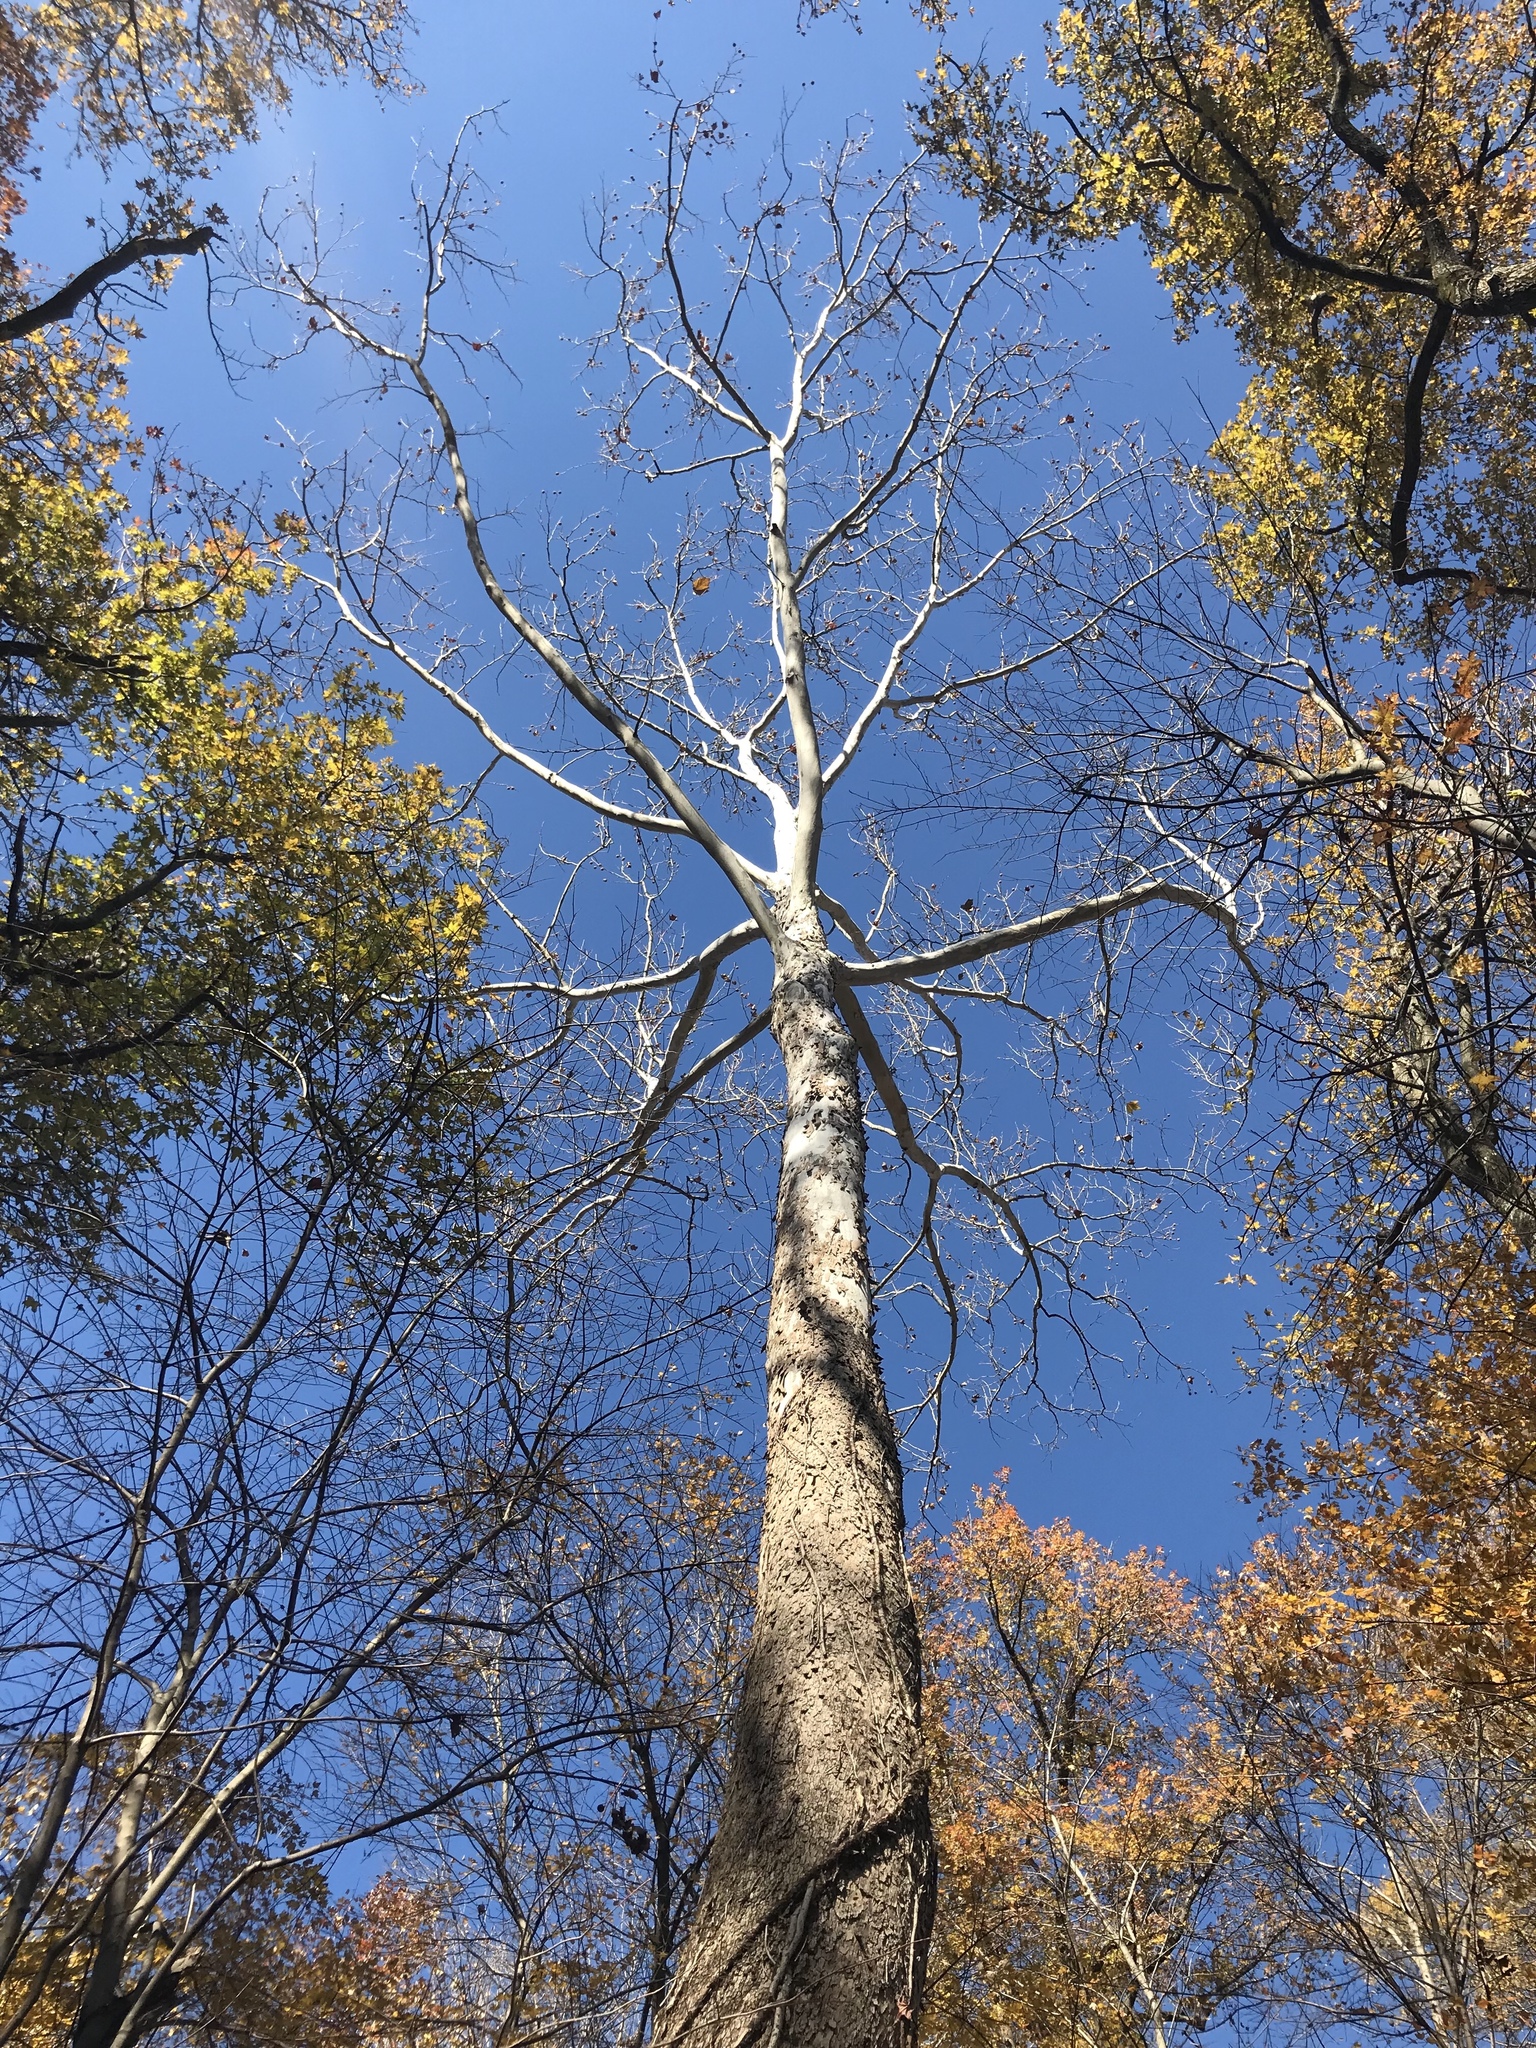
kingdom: Plantae
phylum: Tracheophyta
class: Magnoliopsida
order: Proteales
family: Platanaceae
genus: Platanus
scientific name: Platanus occidentalis
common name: American sycamore
